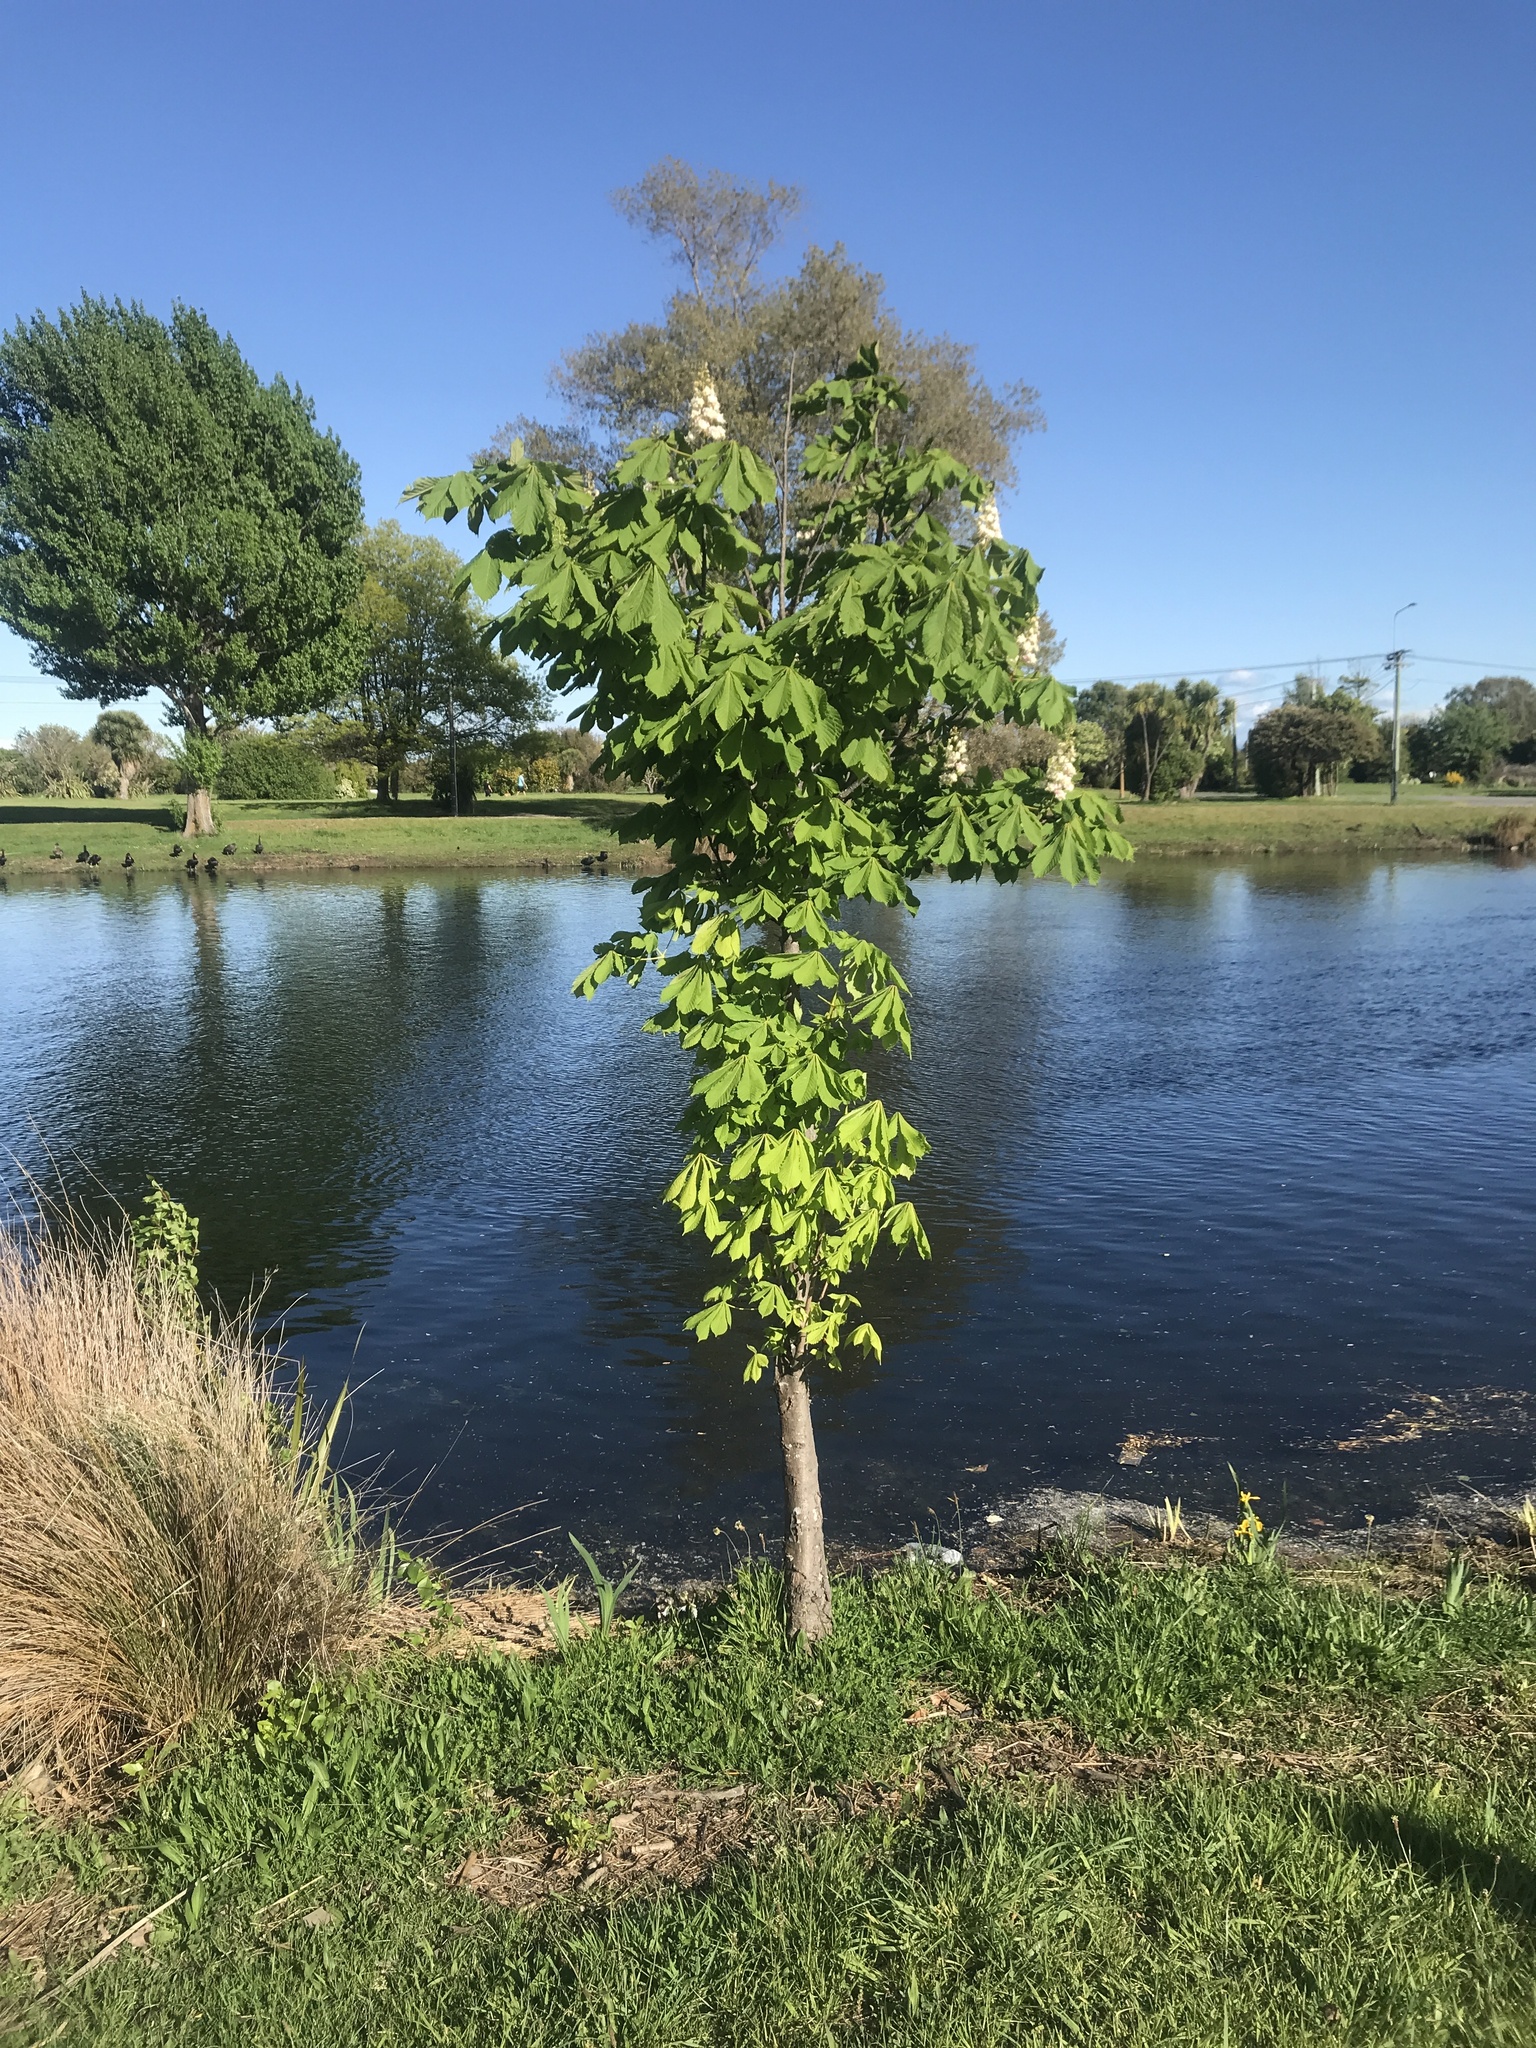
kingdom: Plantae
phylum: Tracheophyta
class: Magnoliopsida
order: Sapindales
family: Sapindaceae
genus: Aesculus
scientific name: Aesculus hippocastanum
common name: Horse-chestnut
